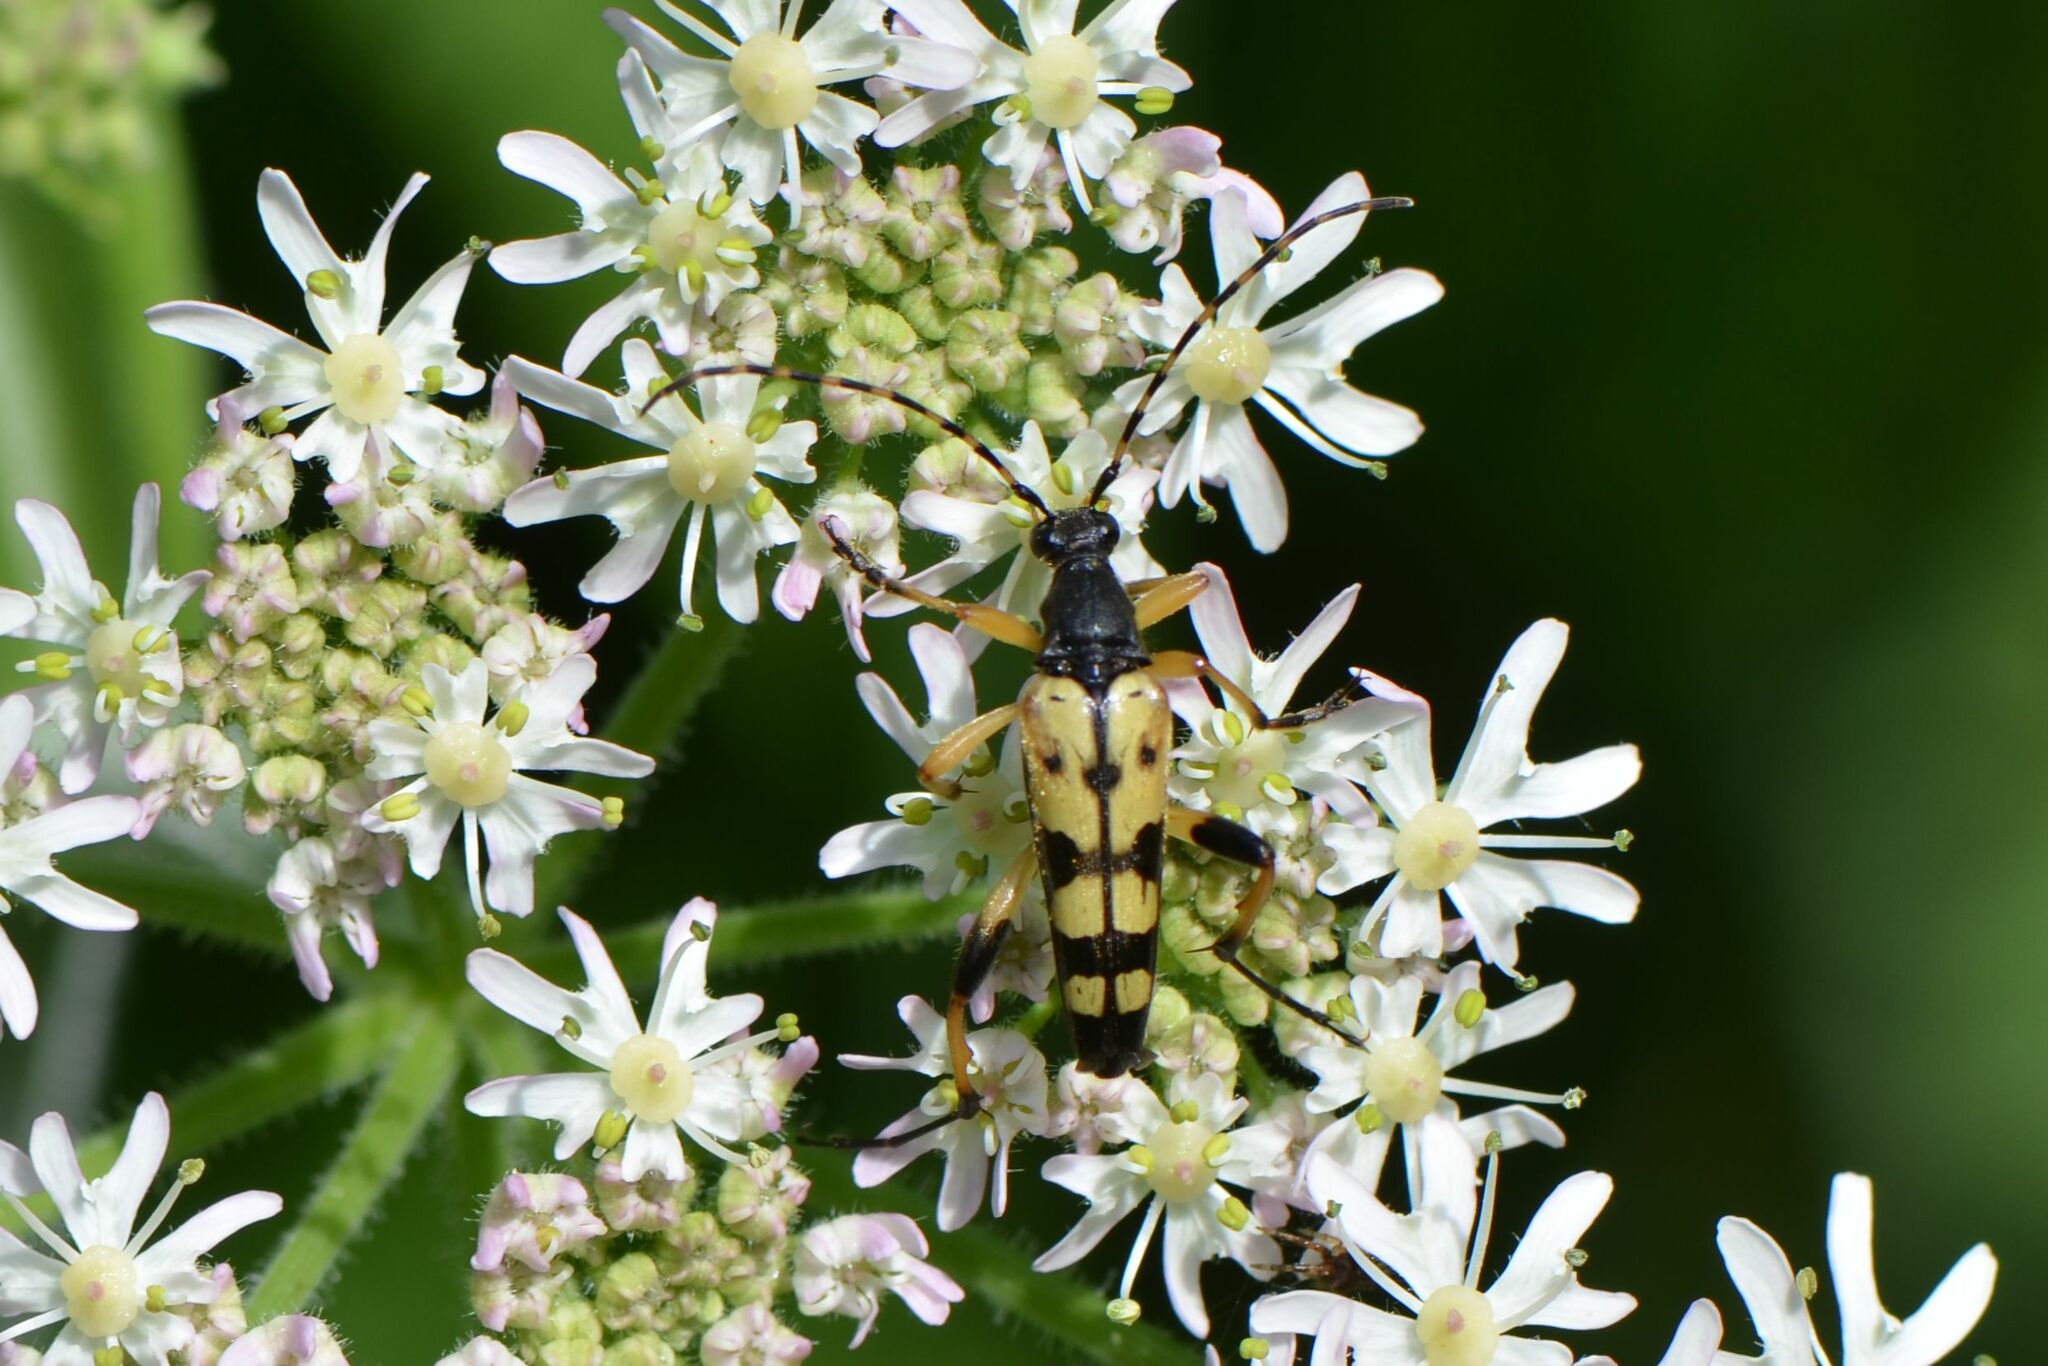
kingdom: Animalia
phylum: Arthropoda
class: Insecta
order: Coleoptera
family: Cerambycidae
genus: Rutpela
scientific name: Rutpela maculata
